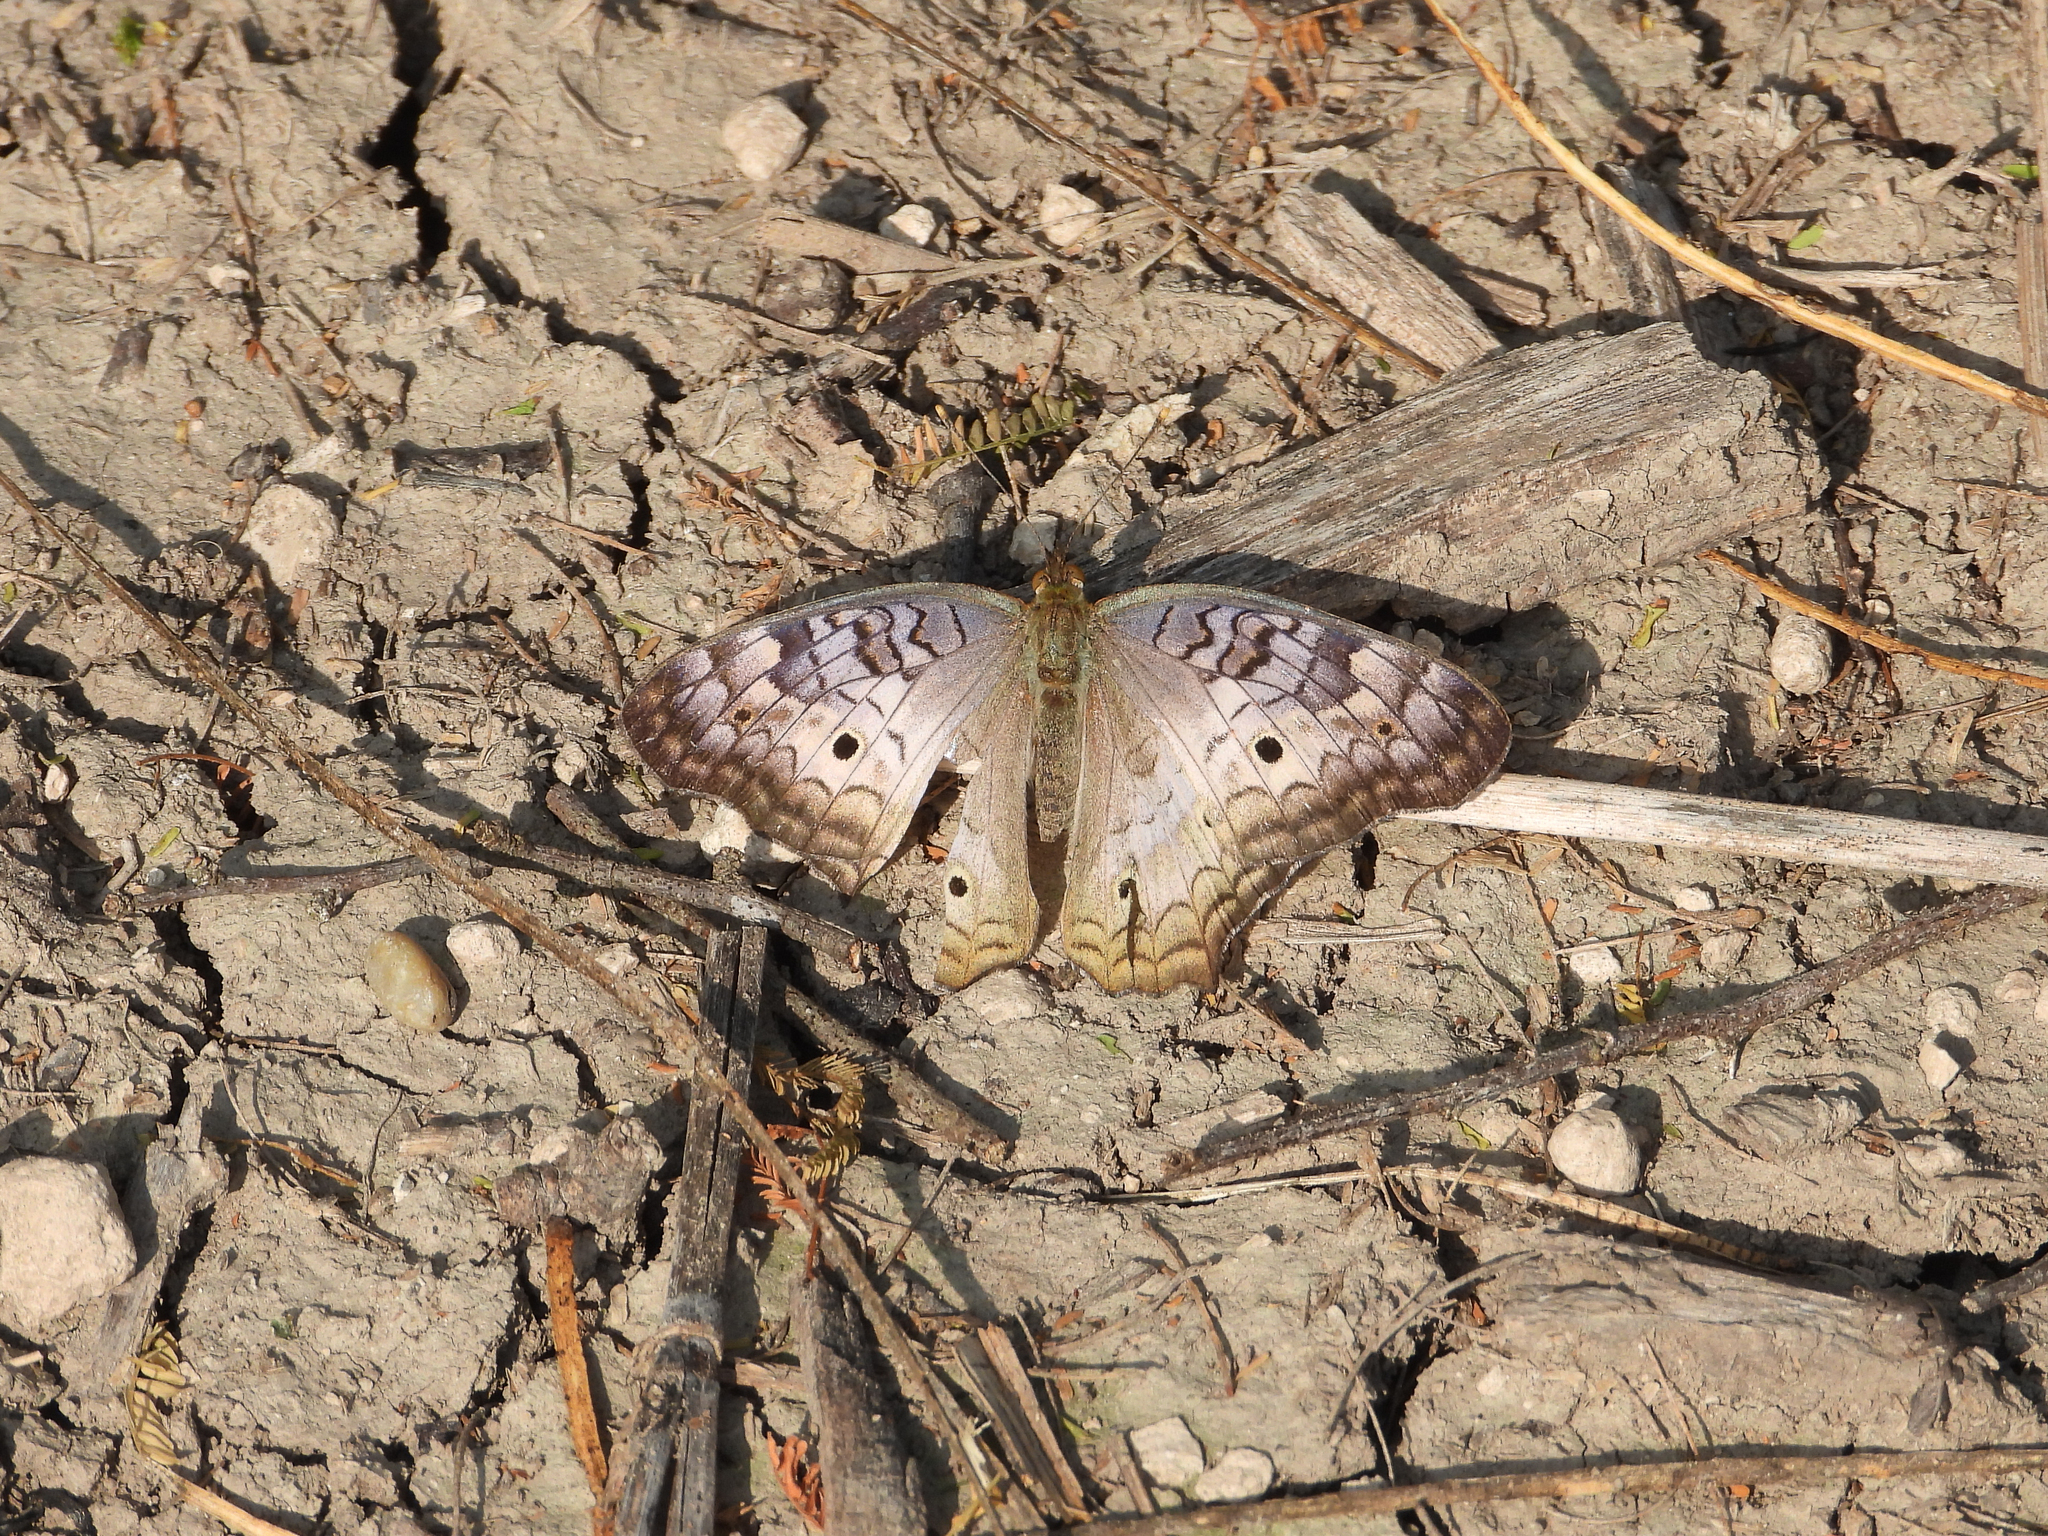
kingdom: Animalia
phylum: Arthropoda
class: Insecta
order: Lepidoptera
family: Nymphalidae
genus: Anartia
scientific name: Anartia jatrophae
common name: White peacock
